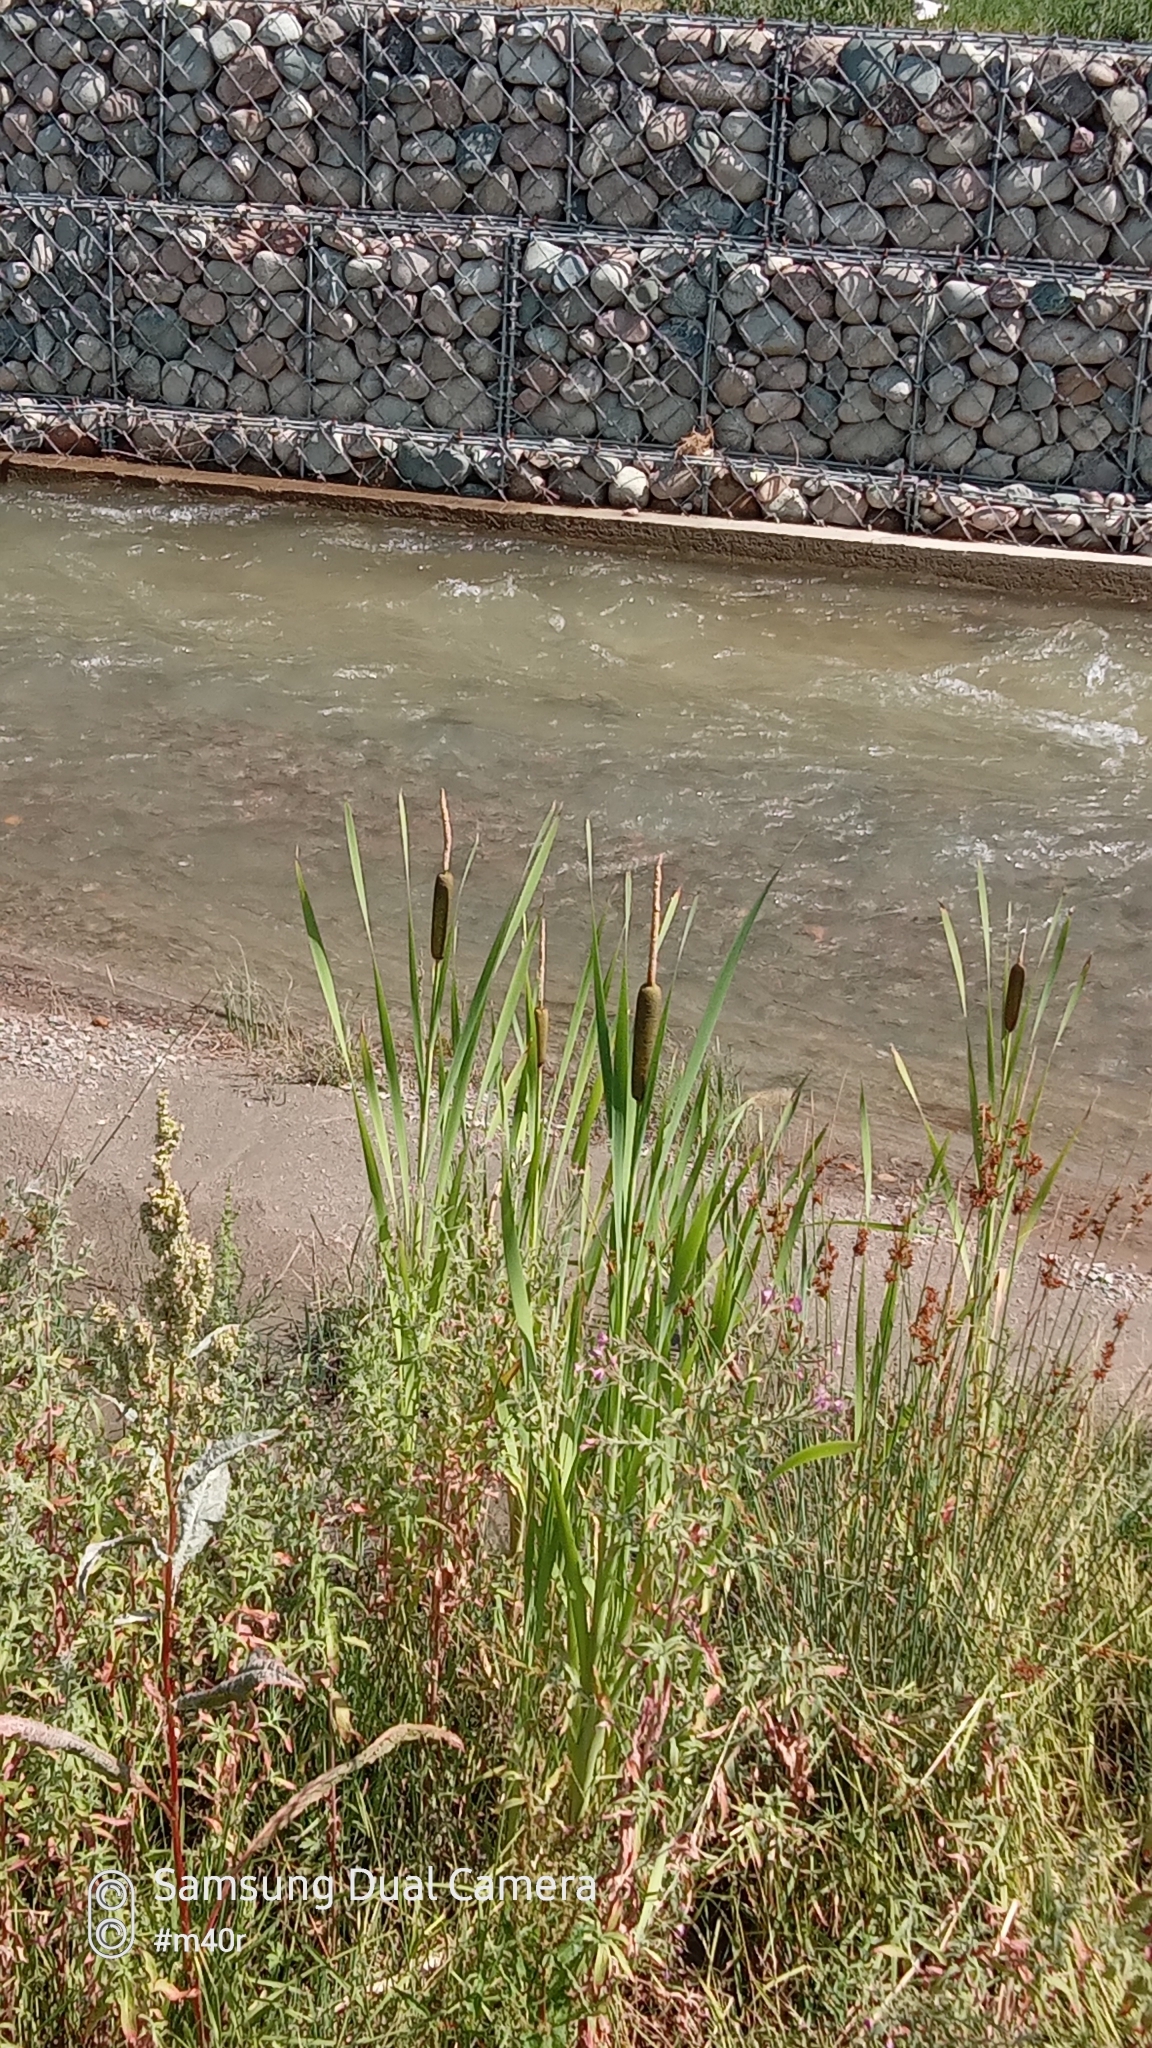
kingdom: Plantae
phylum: Tracheophyta
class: Liliopsida
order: Poales
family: Typhaceae
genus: Typha
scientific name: Typha latifolia
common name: Broadleaf cattail
